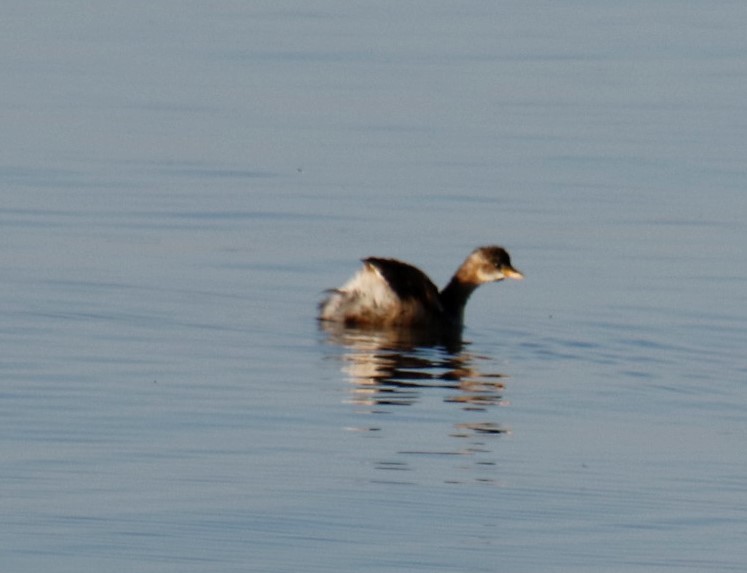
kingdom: Animalia
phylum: Chordata
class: Aves
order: Podicipediformes
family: Podicipedidae
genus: Tachybaptus
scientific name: Tachybaptus ruficollis
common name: Little grebe
